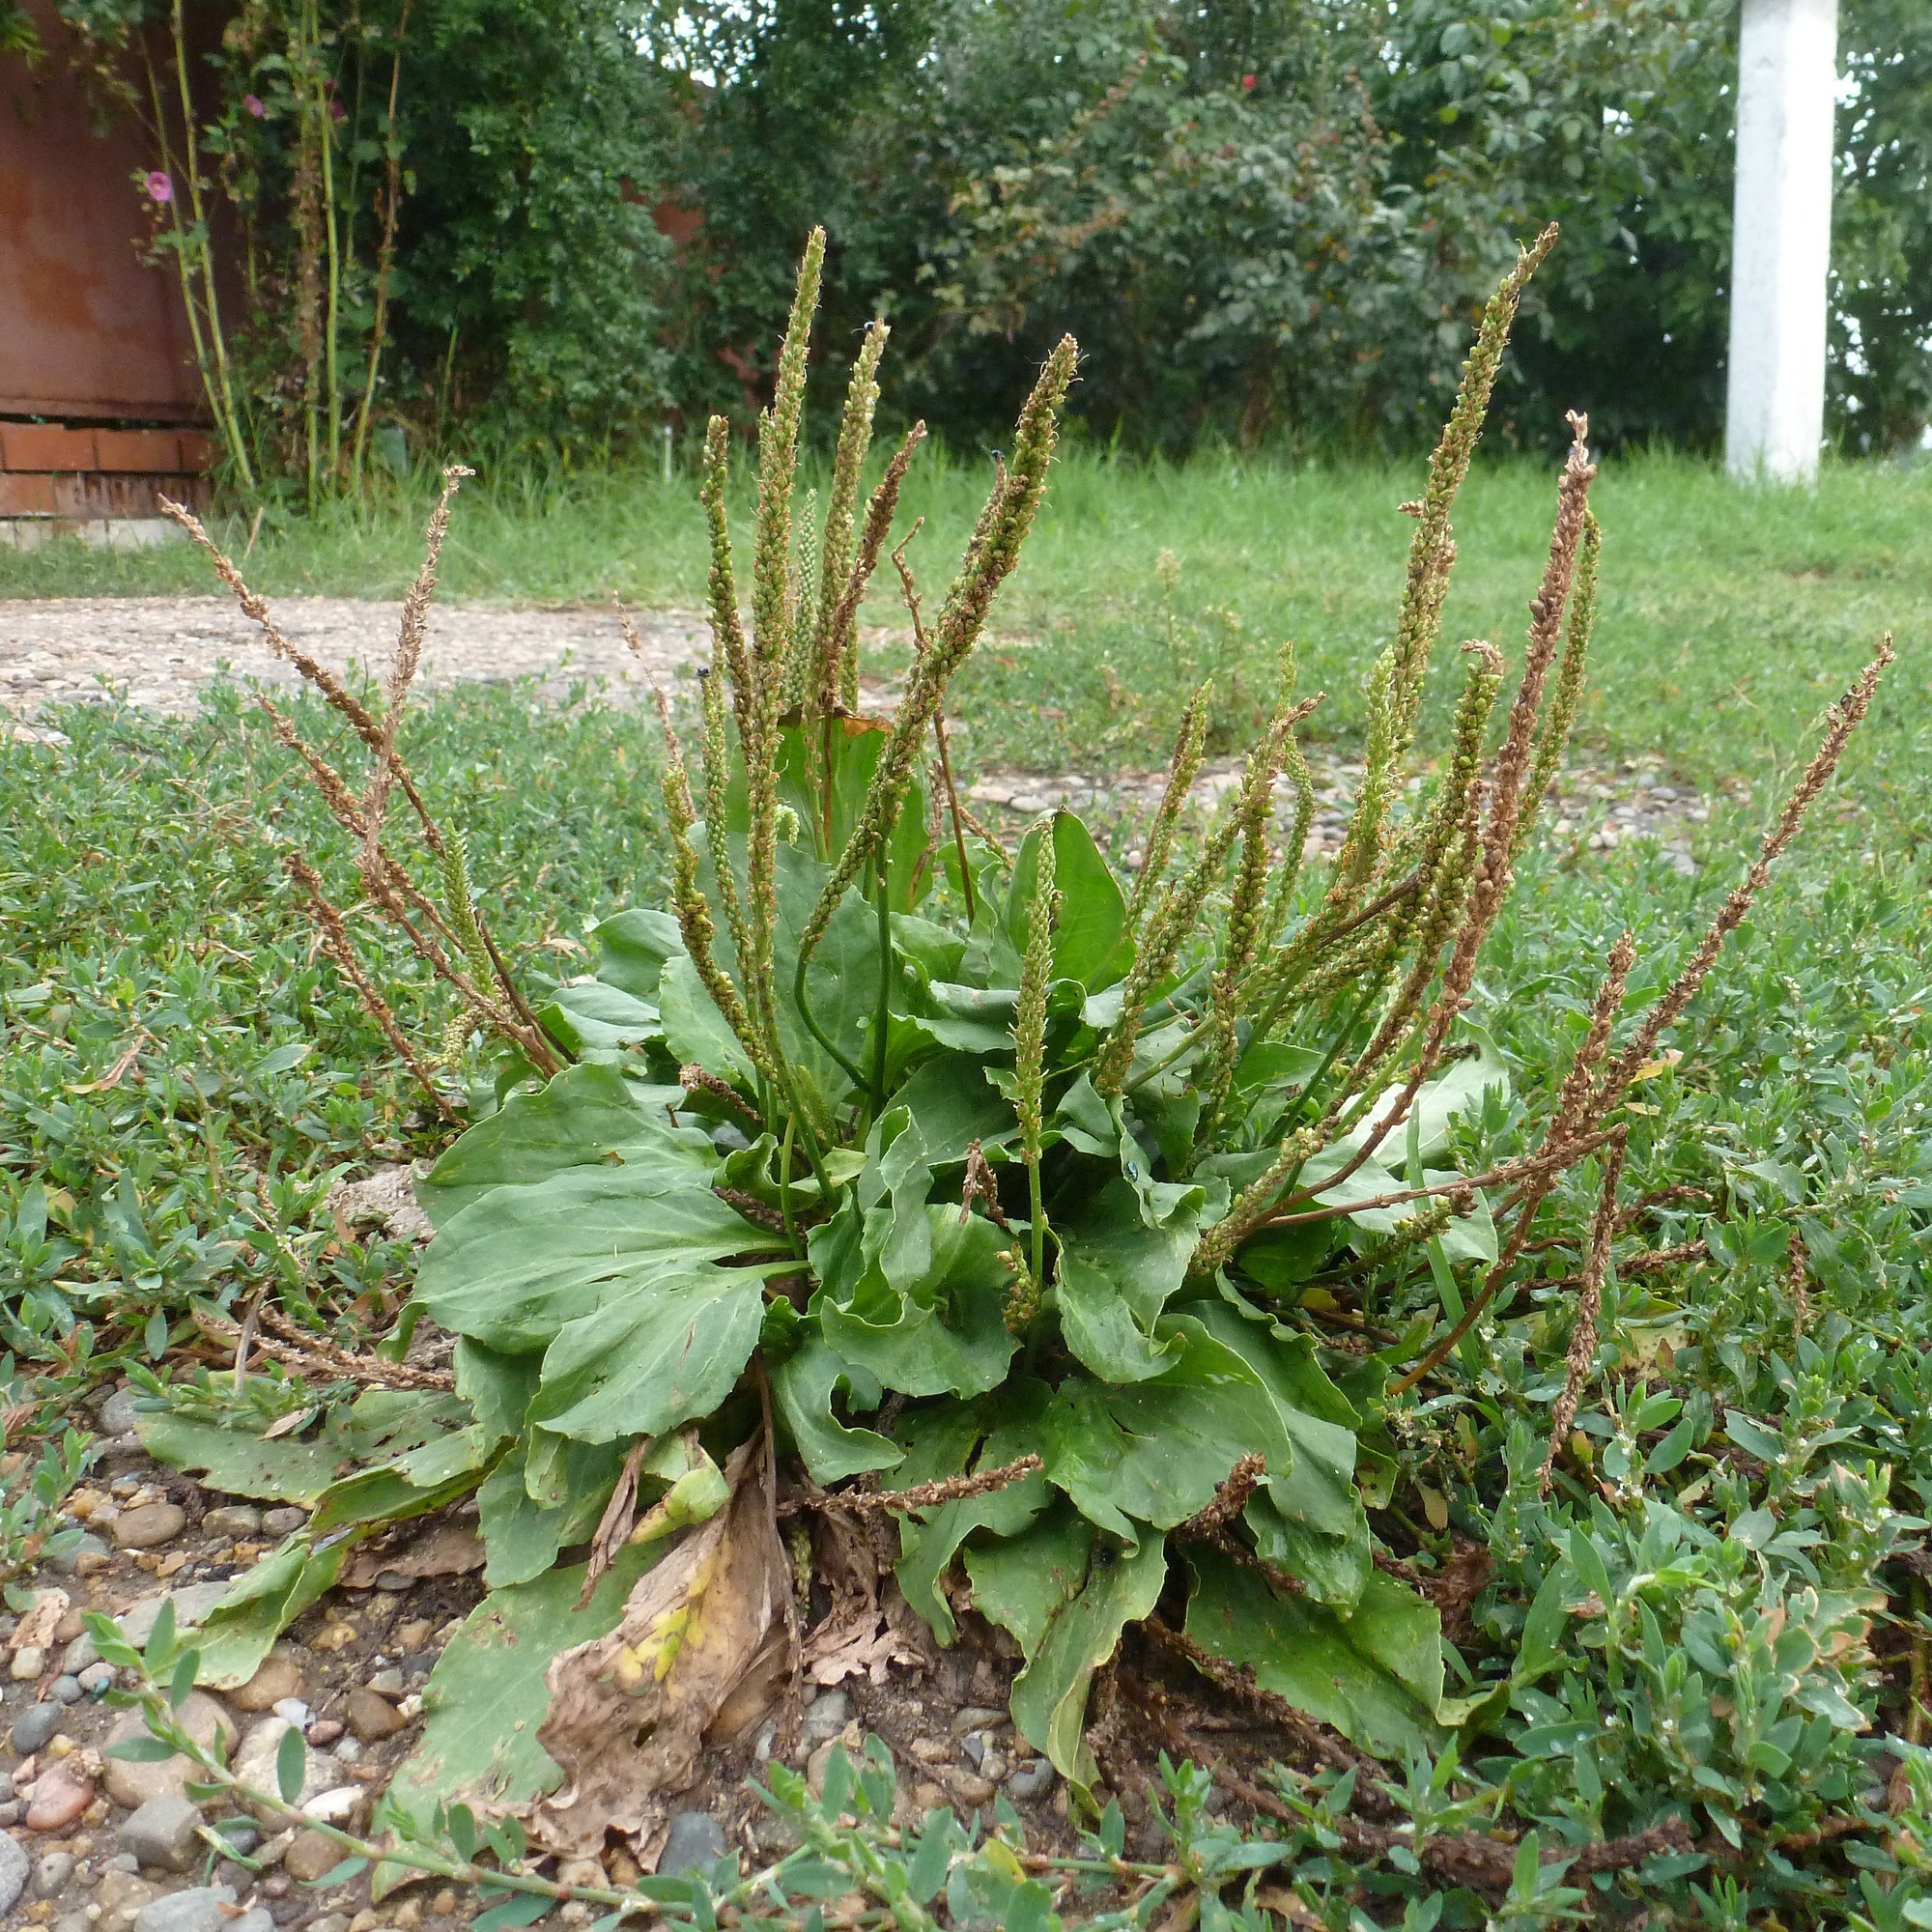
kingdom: Plantae
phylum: Tracheophyta
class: Magnoliopsida
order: Lamiales
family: Plantaginaceae
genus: Plantago
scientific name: Plantago major
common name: Common plantain
